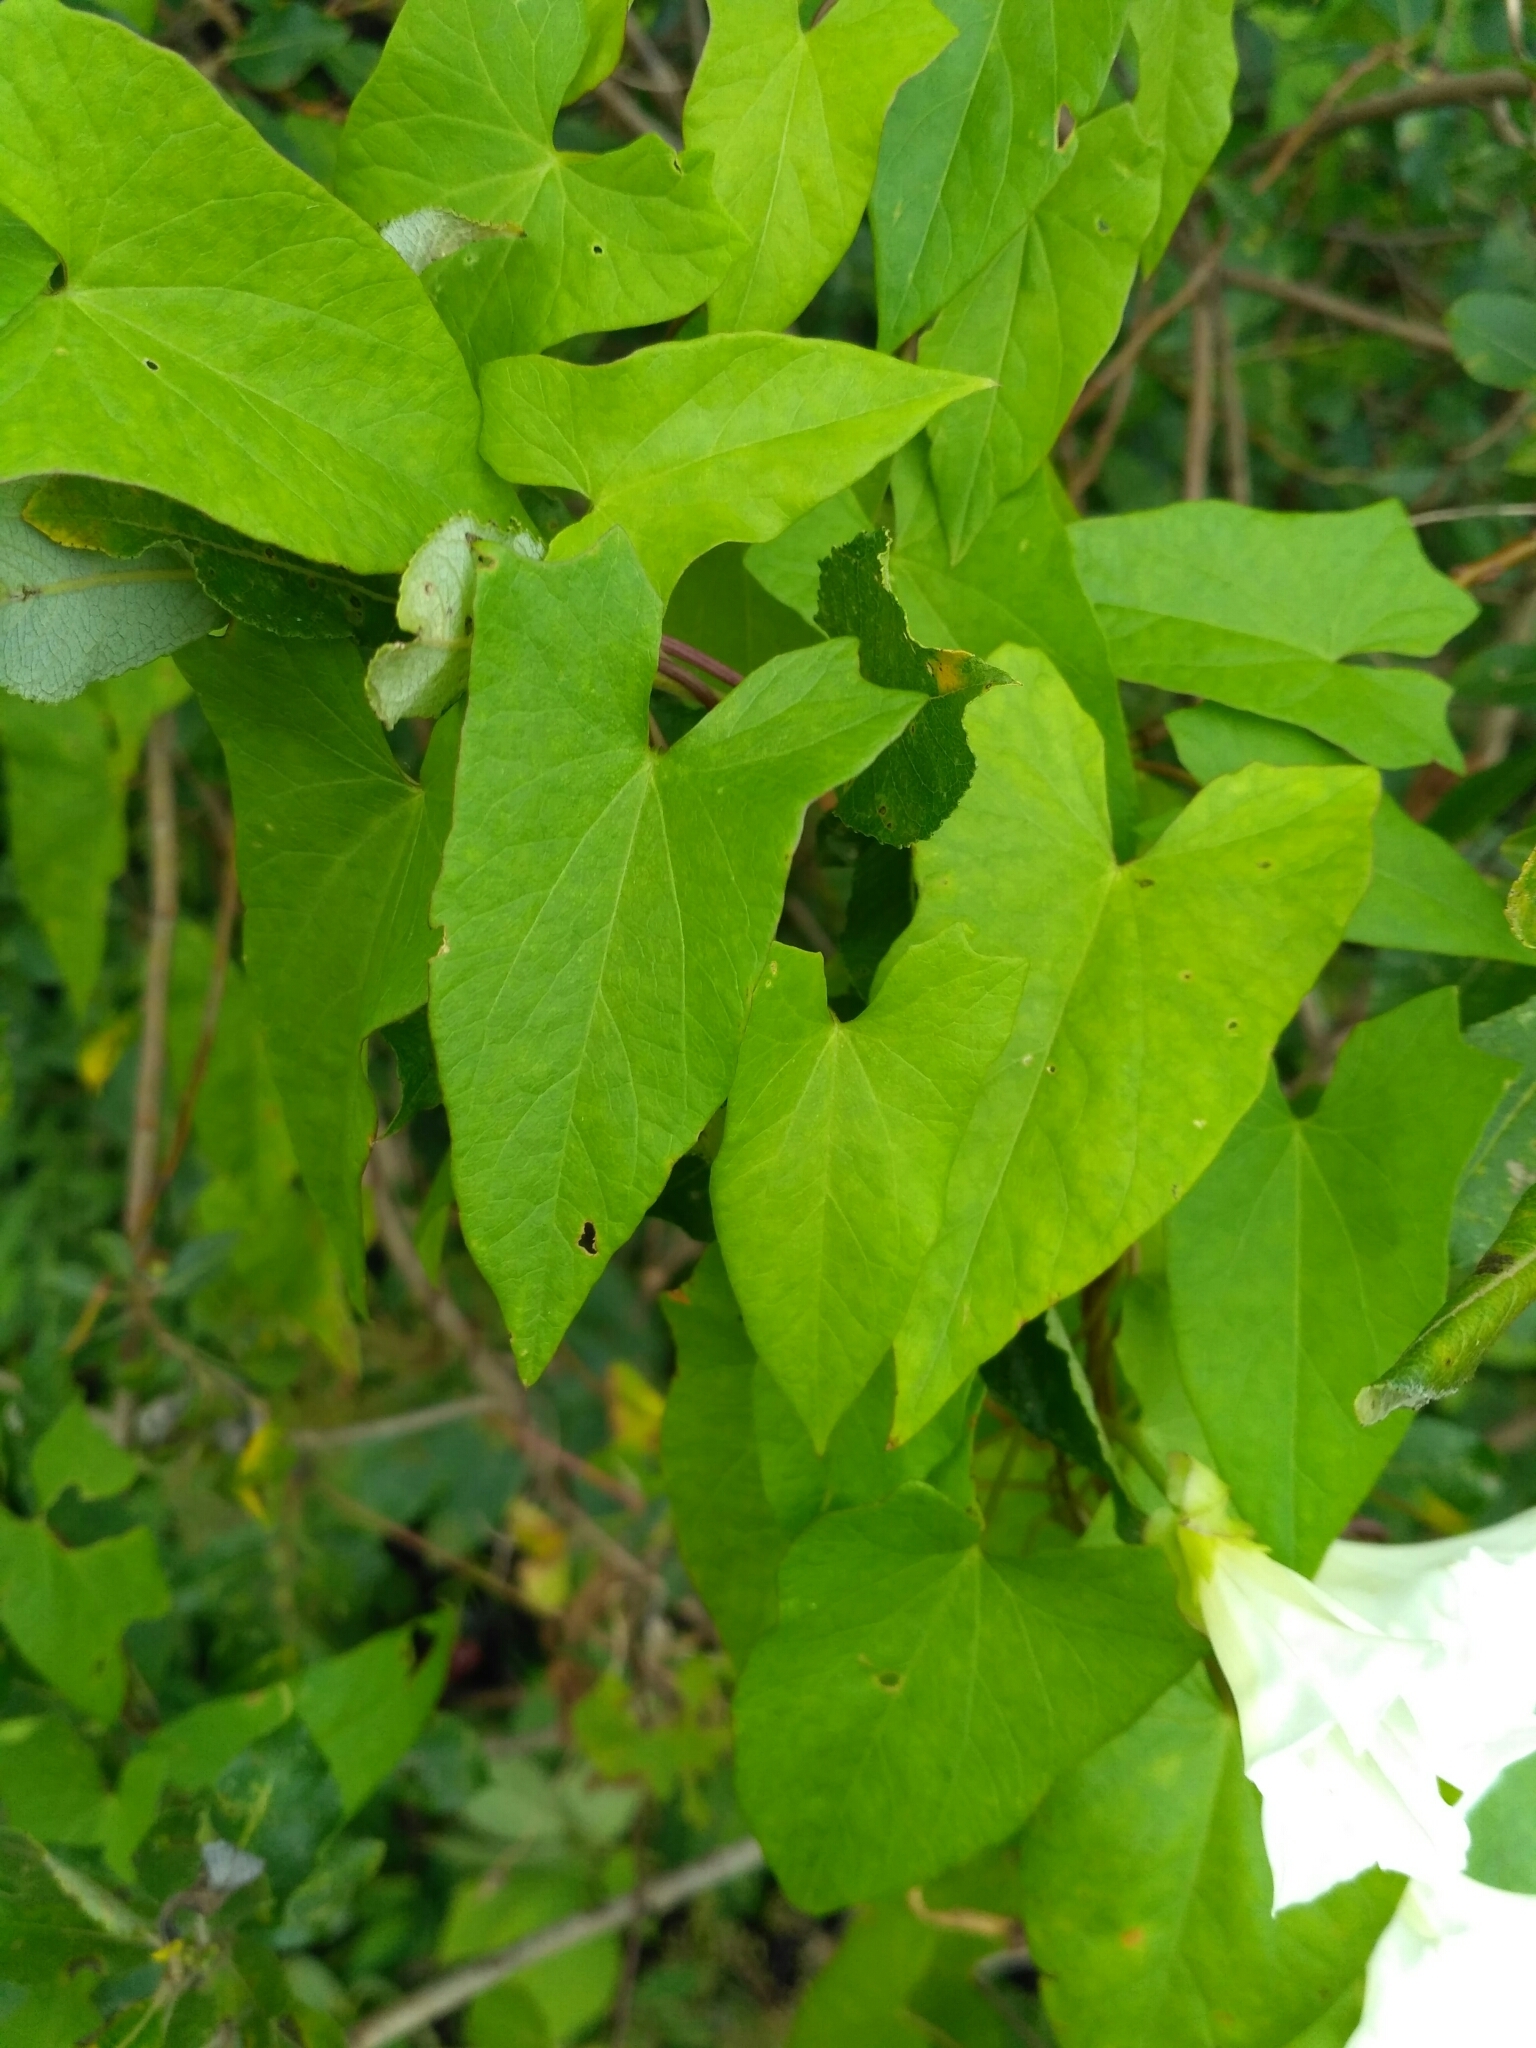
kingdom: Plantae
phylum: Tracheophyta
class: Magnoliopsida
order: Solanales
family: Convolvulaceae
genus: Calystegia
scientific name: Calystegia sepium
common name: Hedge bindweed
